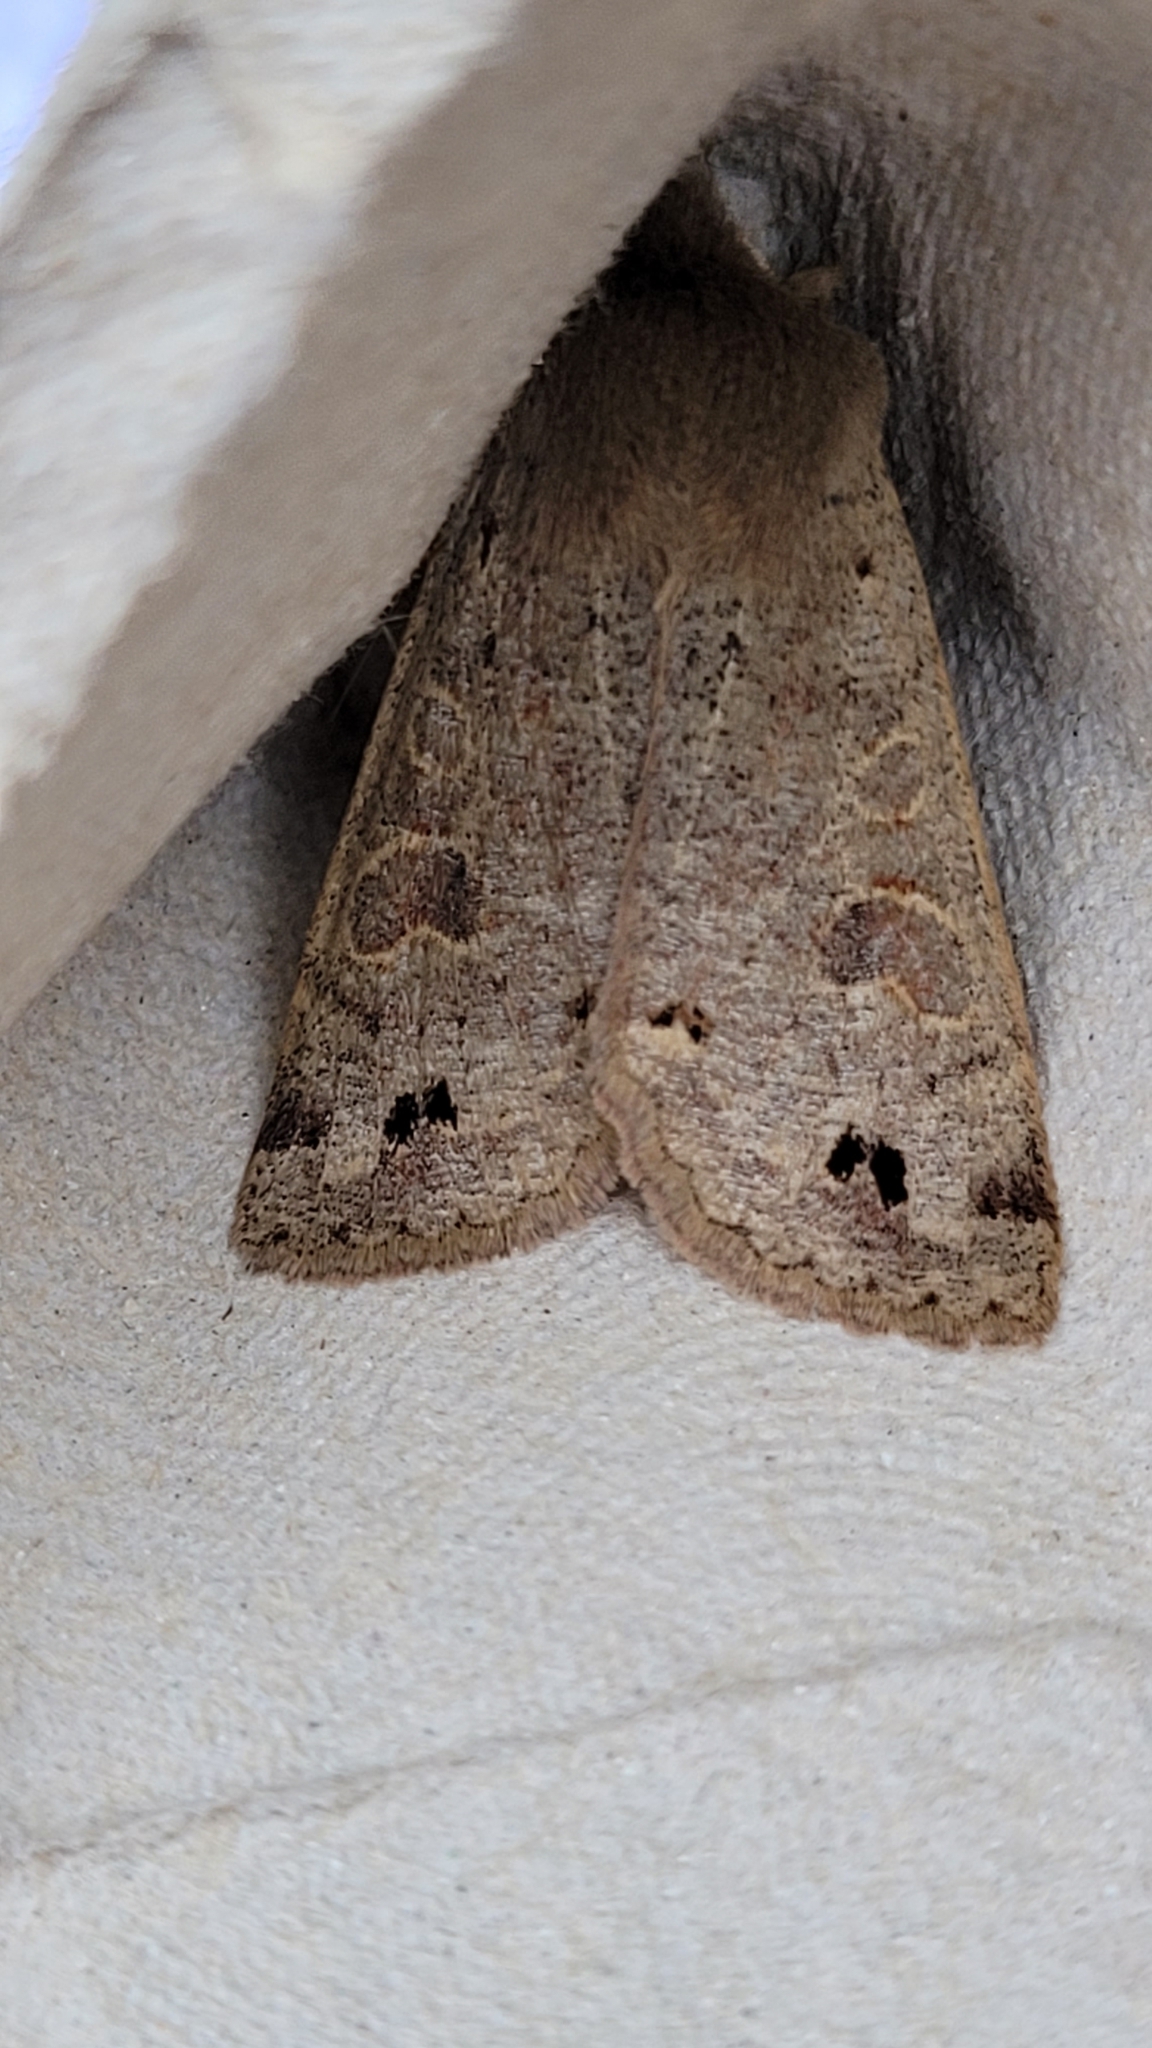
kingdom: Animalia
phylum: Arthropoda
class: Insecta
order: Lepidoptera
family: Noctuidae
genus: Anorthoa
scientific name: Anorthoa munda
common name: Twin-spotted quaker
